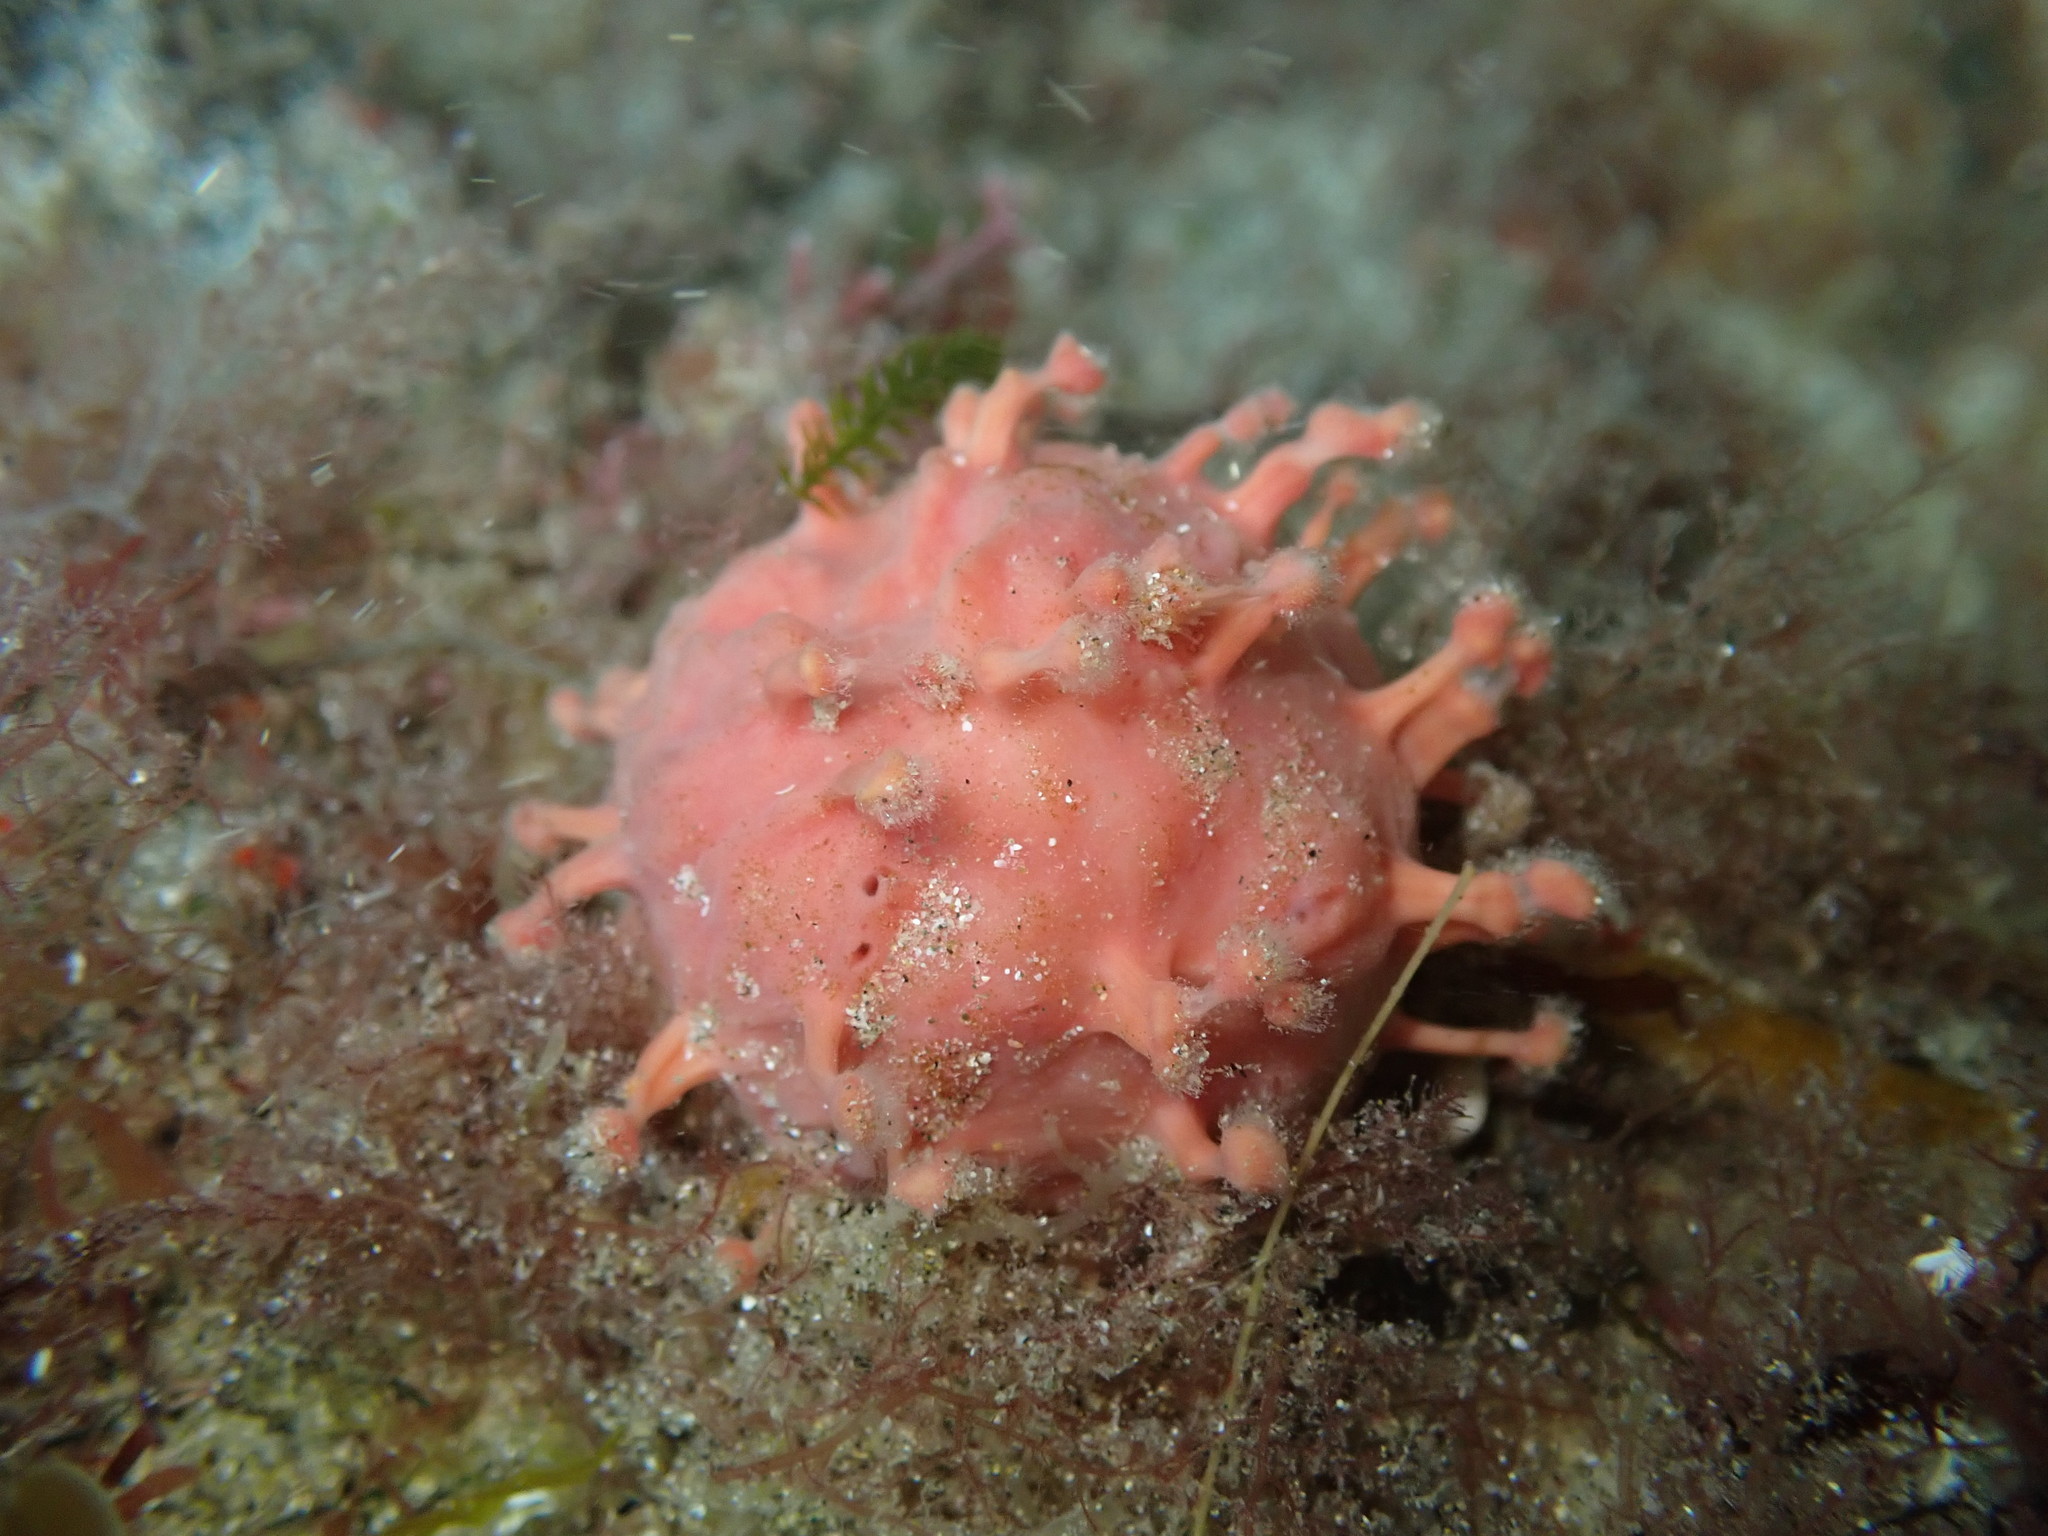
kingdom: Animalia
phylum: Porifera
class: Demospongiae
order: Tethyida
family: Tethyidae
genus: Tethya
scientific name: Tethya bergquistae
